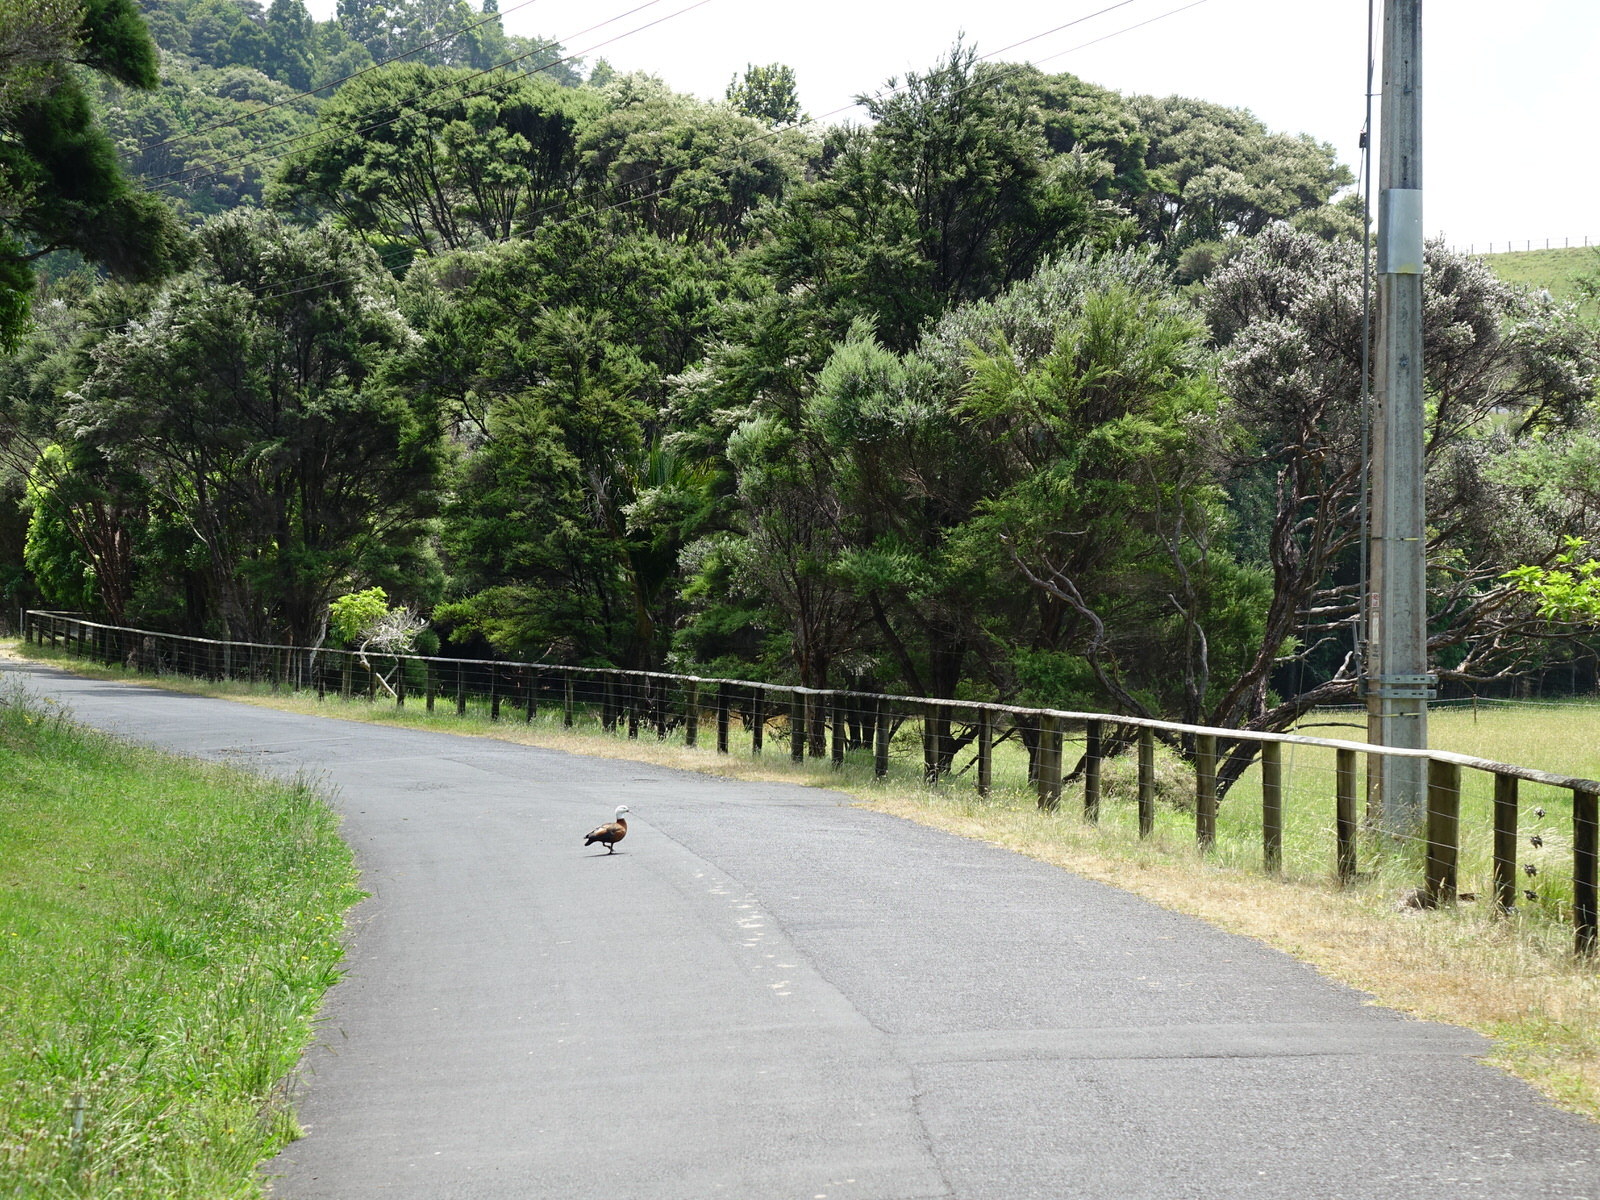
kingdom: Animalia
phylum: Chordata
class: Aves
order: Anseriformes
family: Anatidae
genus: Tadorna
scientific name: Tadorna variegata
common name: Paradise shelduck
